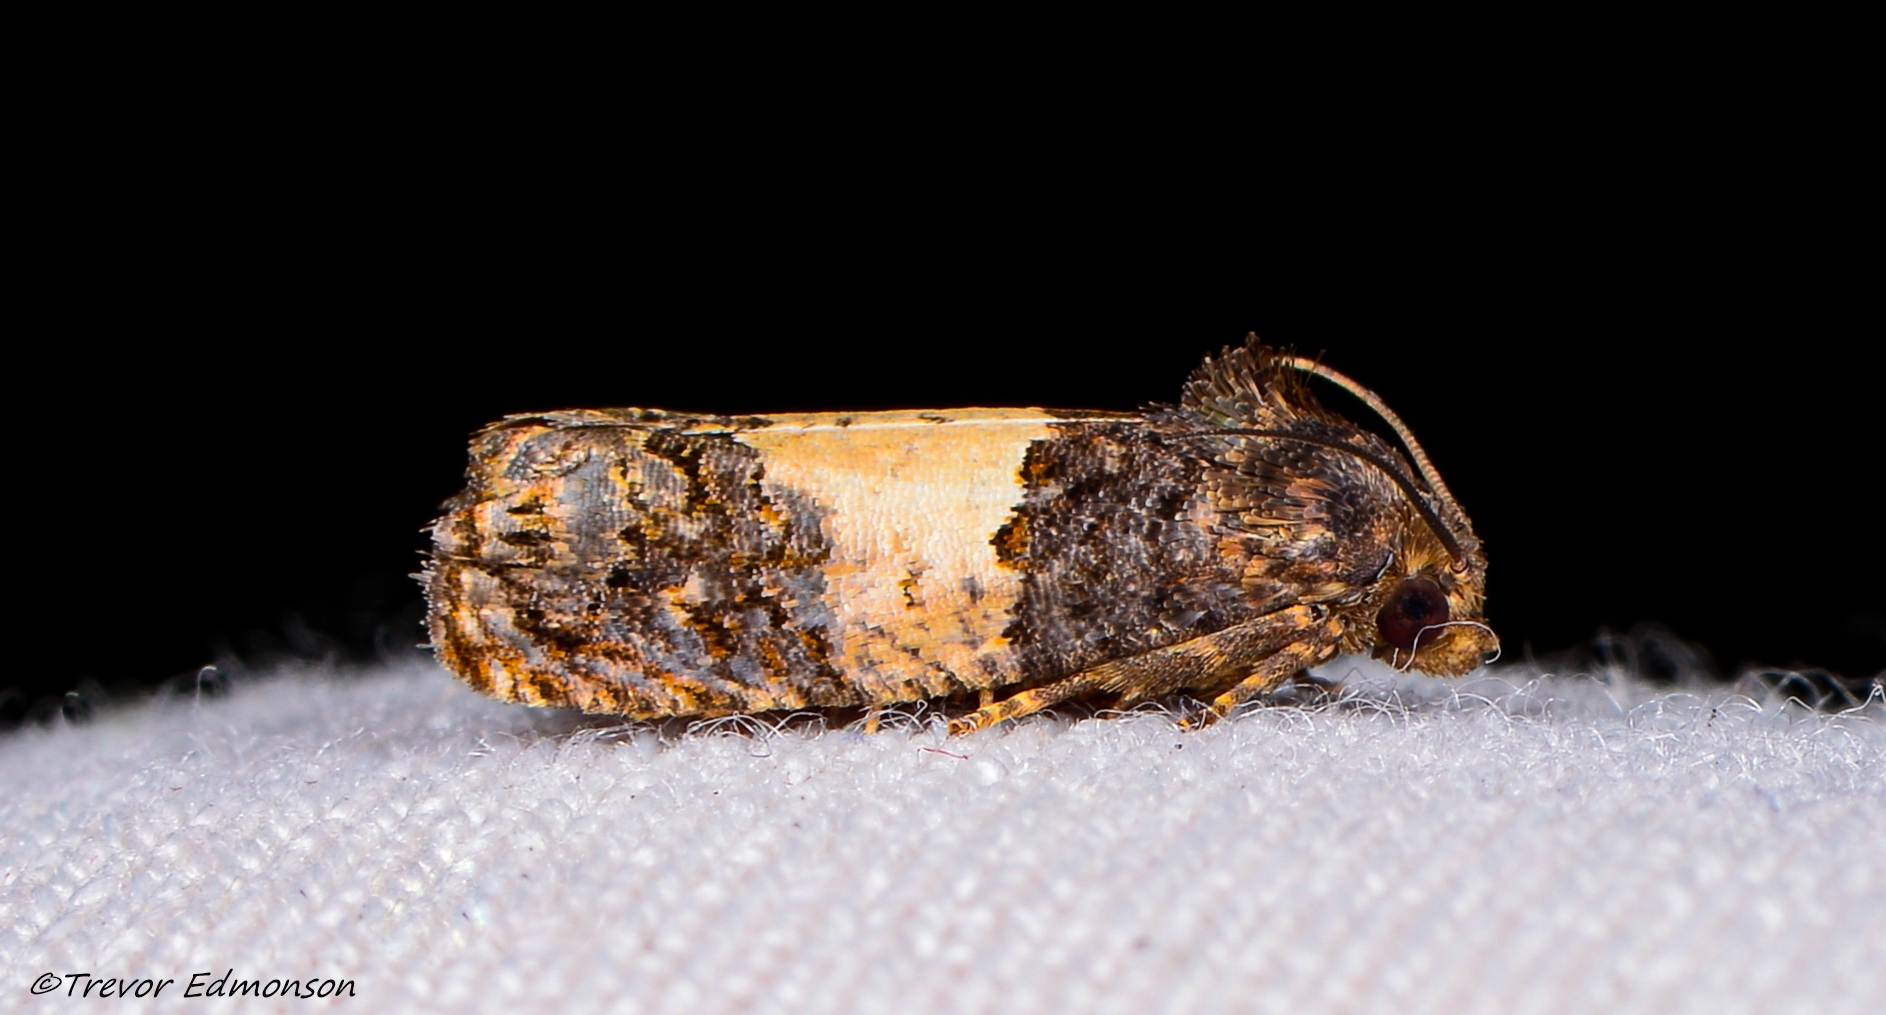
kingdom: Animalia
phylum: Arthropoda
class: Insecta
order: Lepidoptera
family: Tortricidae
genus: Epiblema
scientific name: Epiblema glenni
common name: Glenn's epiblema
